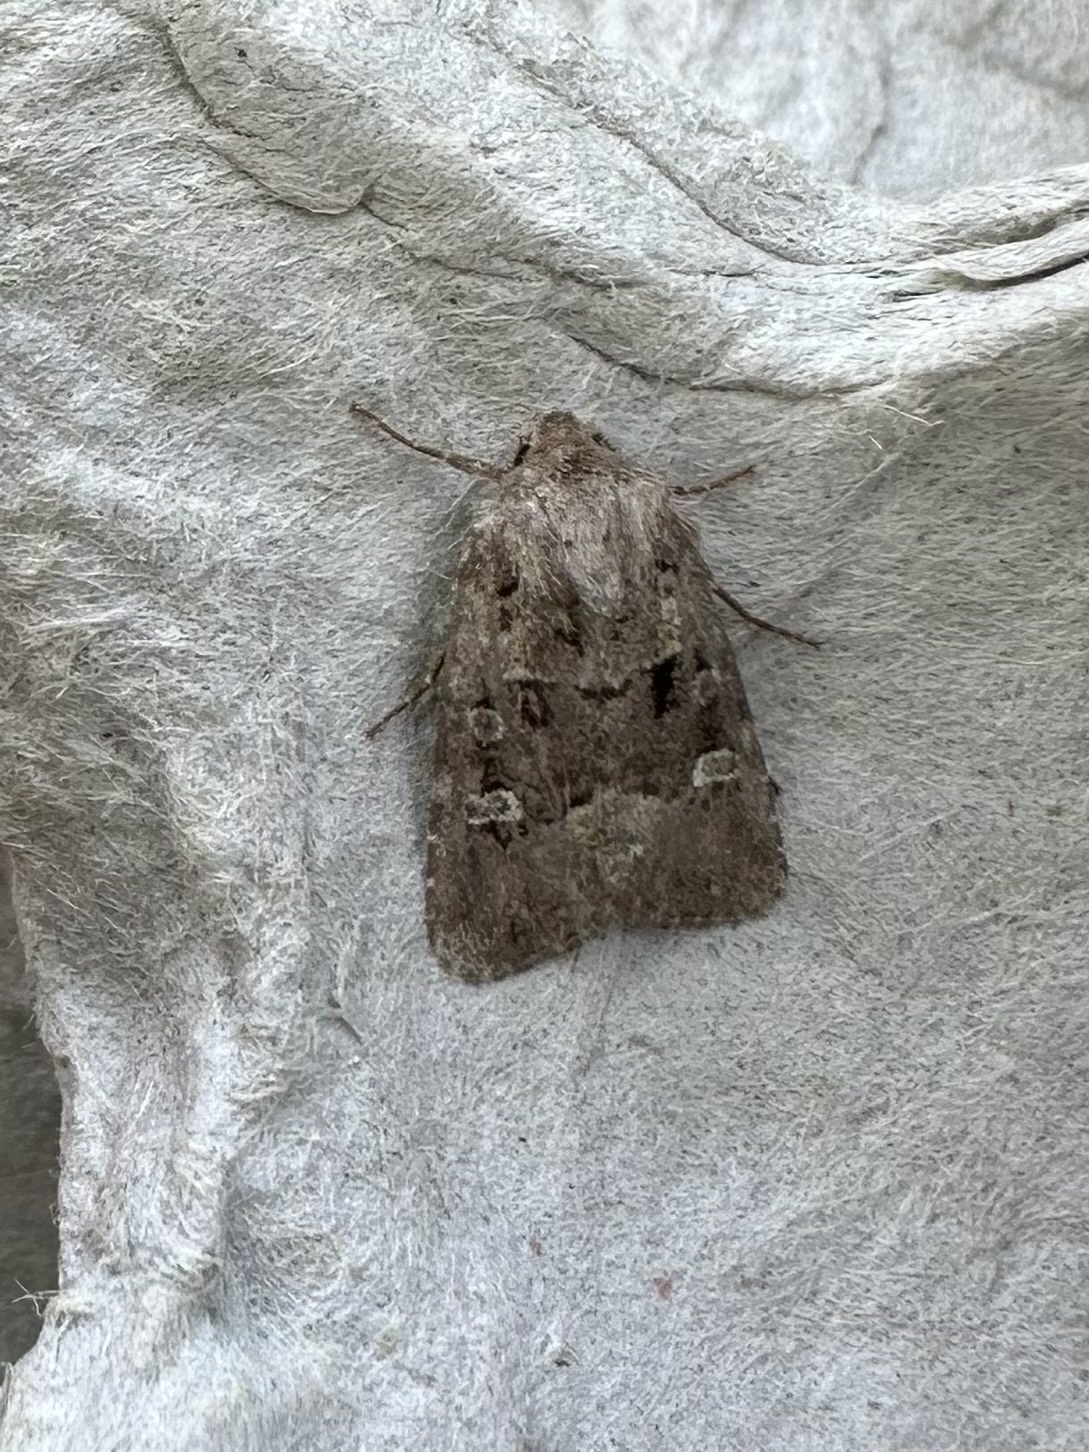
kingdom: Animalia
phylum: Arthropoda
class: Insecta
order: Lepidoptera
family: Noctuidae
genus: Lacinipolia
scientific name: Lacinipolia renigera
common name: Kidney-spotted minor
